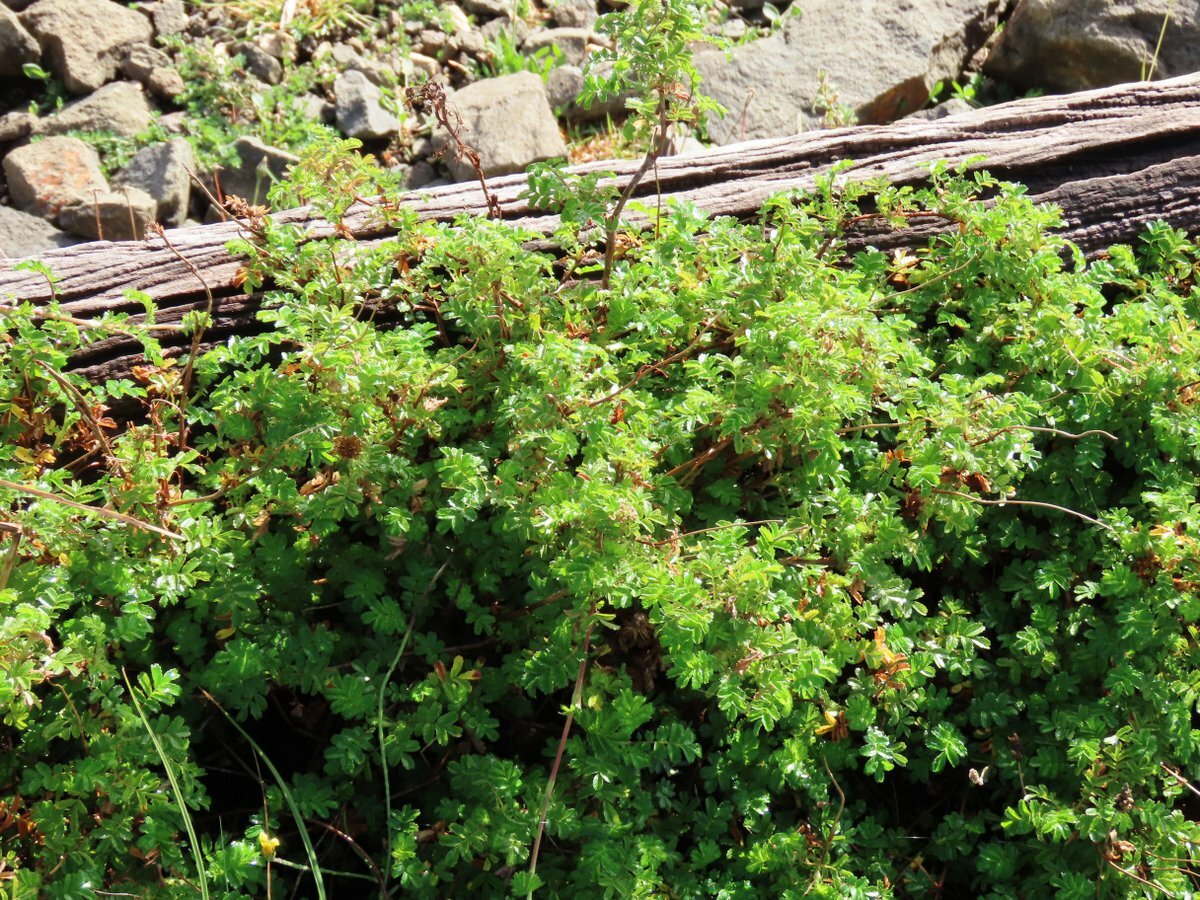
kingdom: Plantae
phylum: Tracheophyta
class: Magnoliopsida
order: Rosales
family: Rosaceae
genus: Acaena
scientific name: Acaena novae-zelandiae
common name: Pirri-pirri-bur
